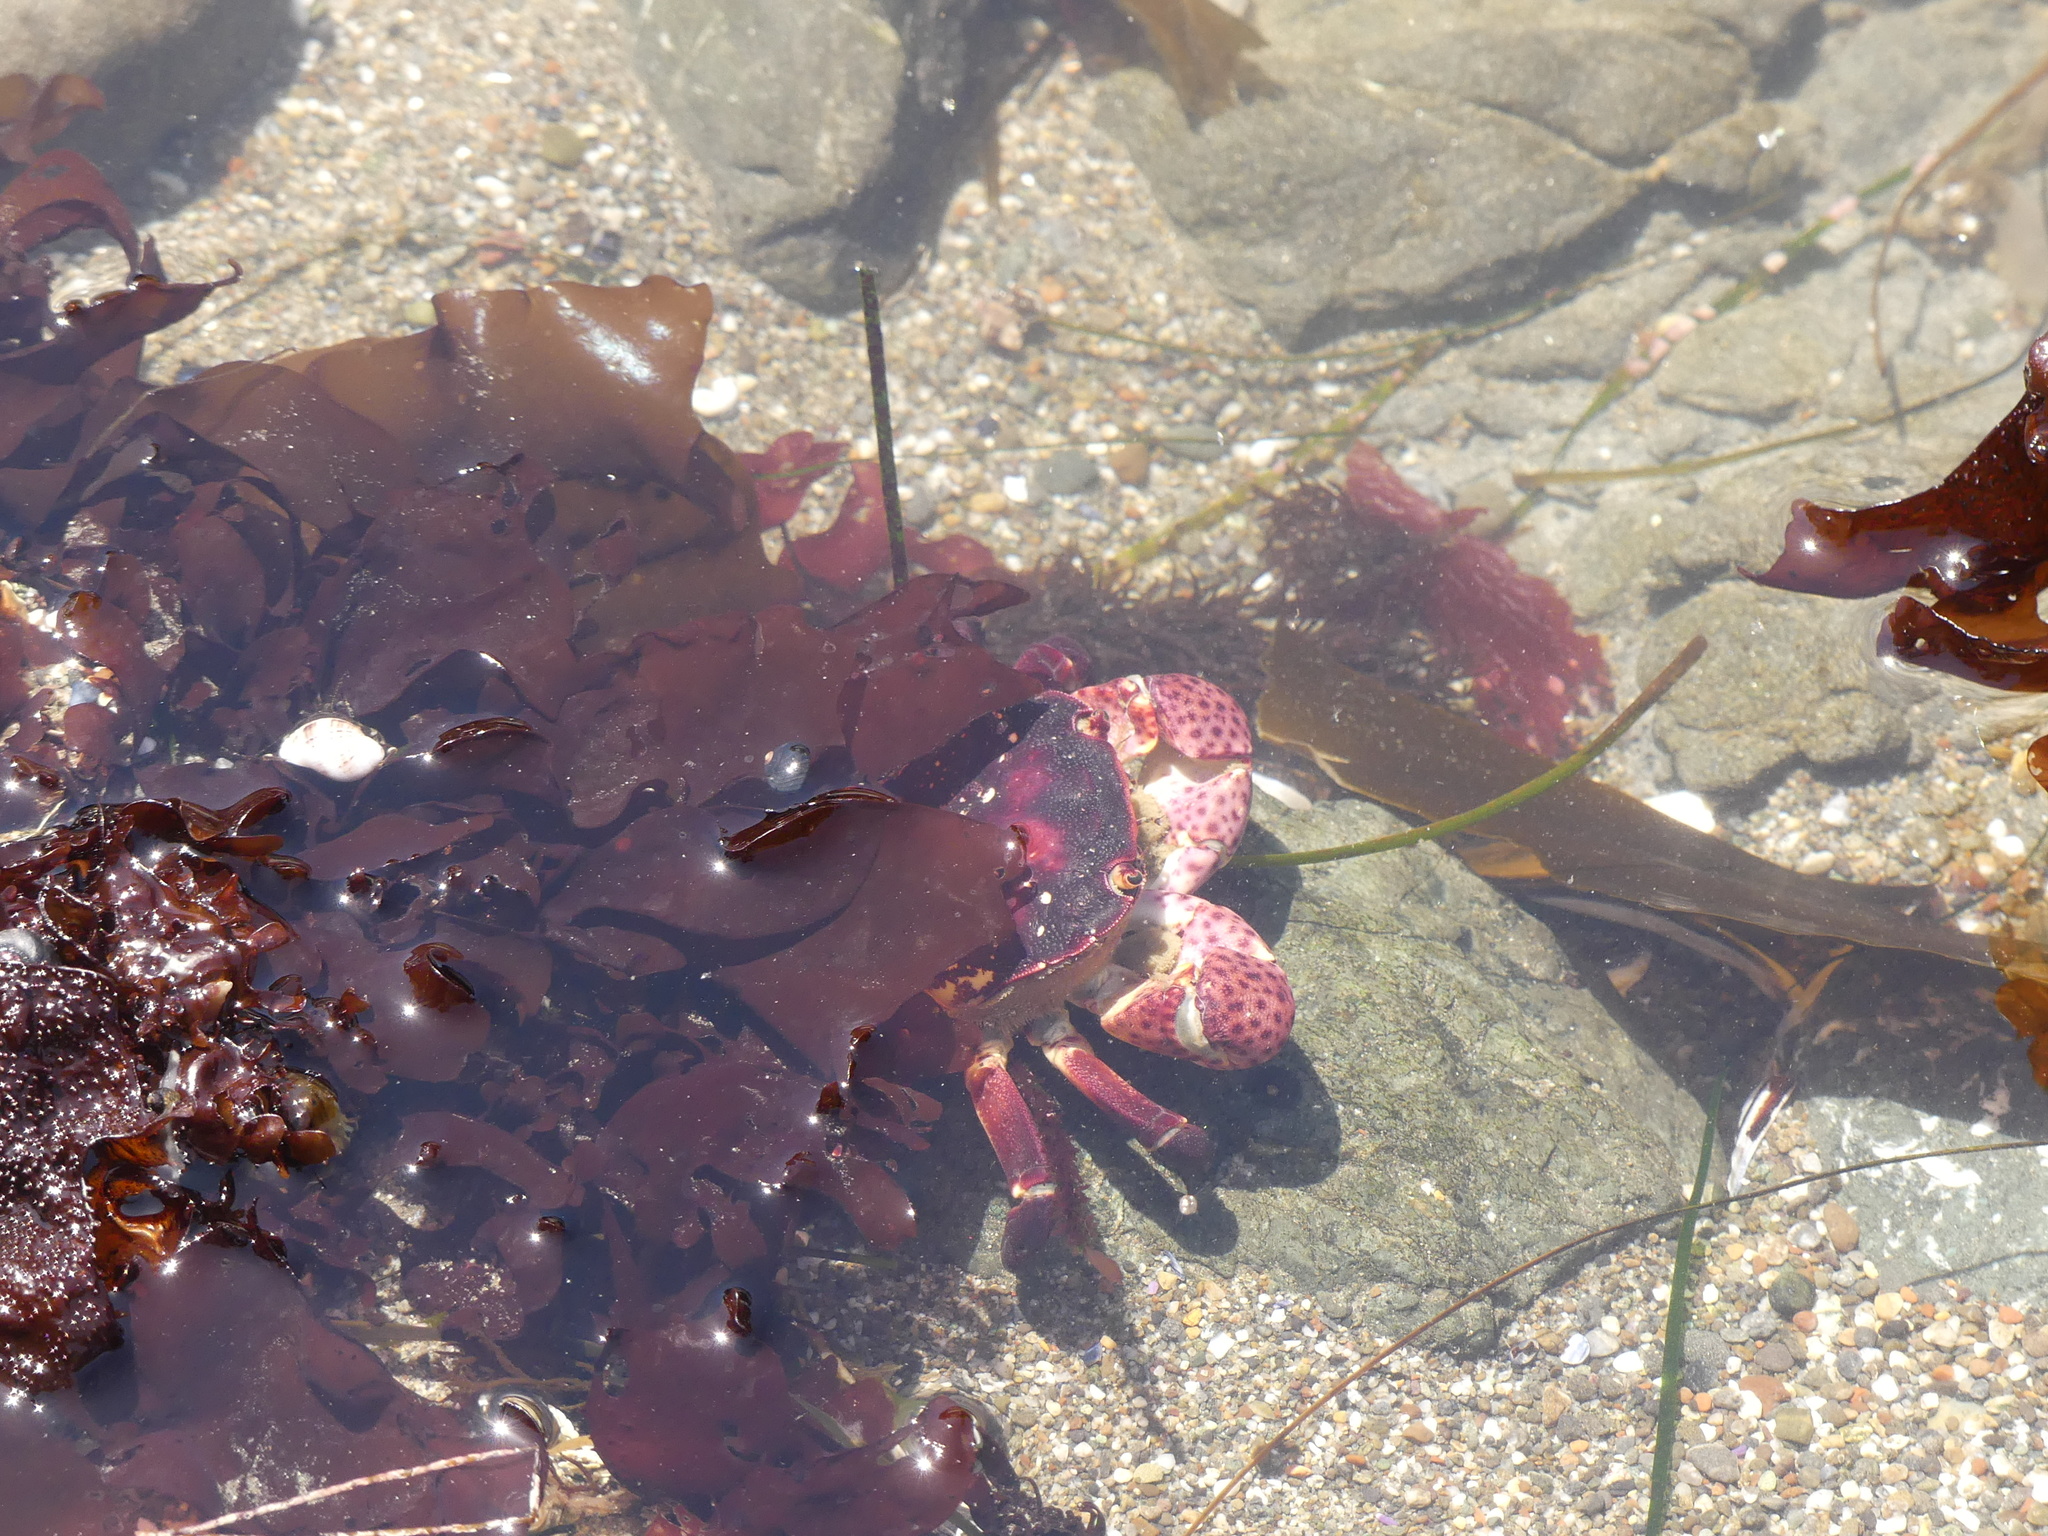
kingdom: Animalia
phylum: Arthropoda
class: Malacostraca
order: Decapoda
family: Varunidae
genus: Hemigrapsus
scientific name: Hemigrapsus nudus
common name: Purple shore crab
